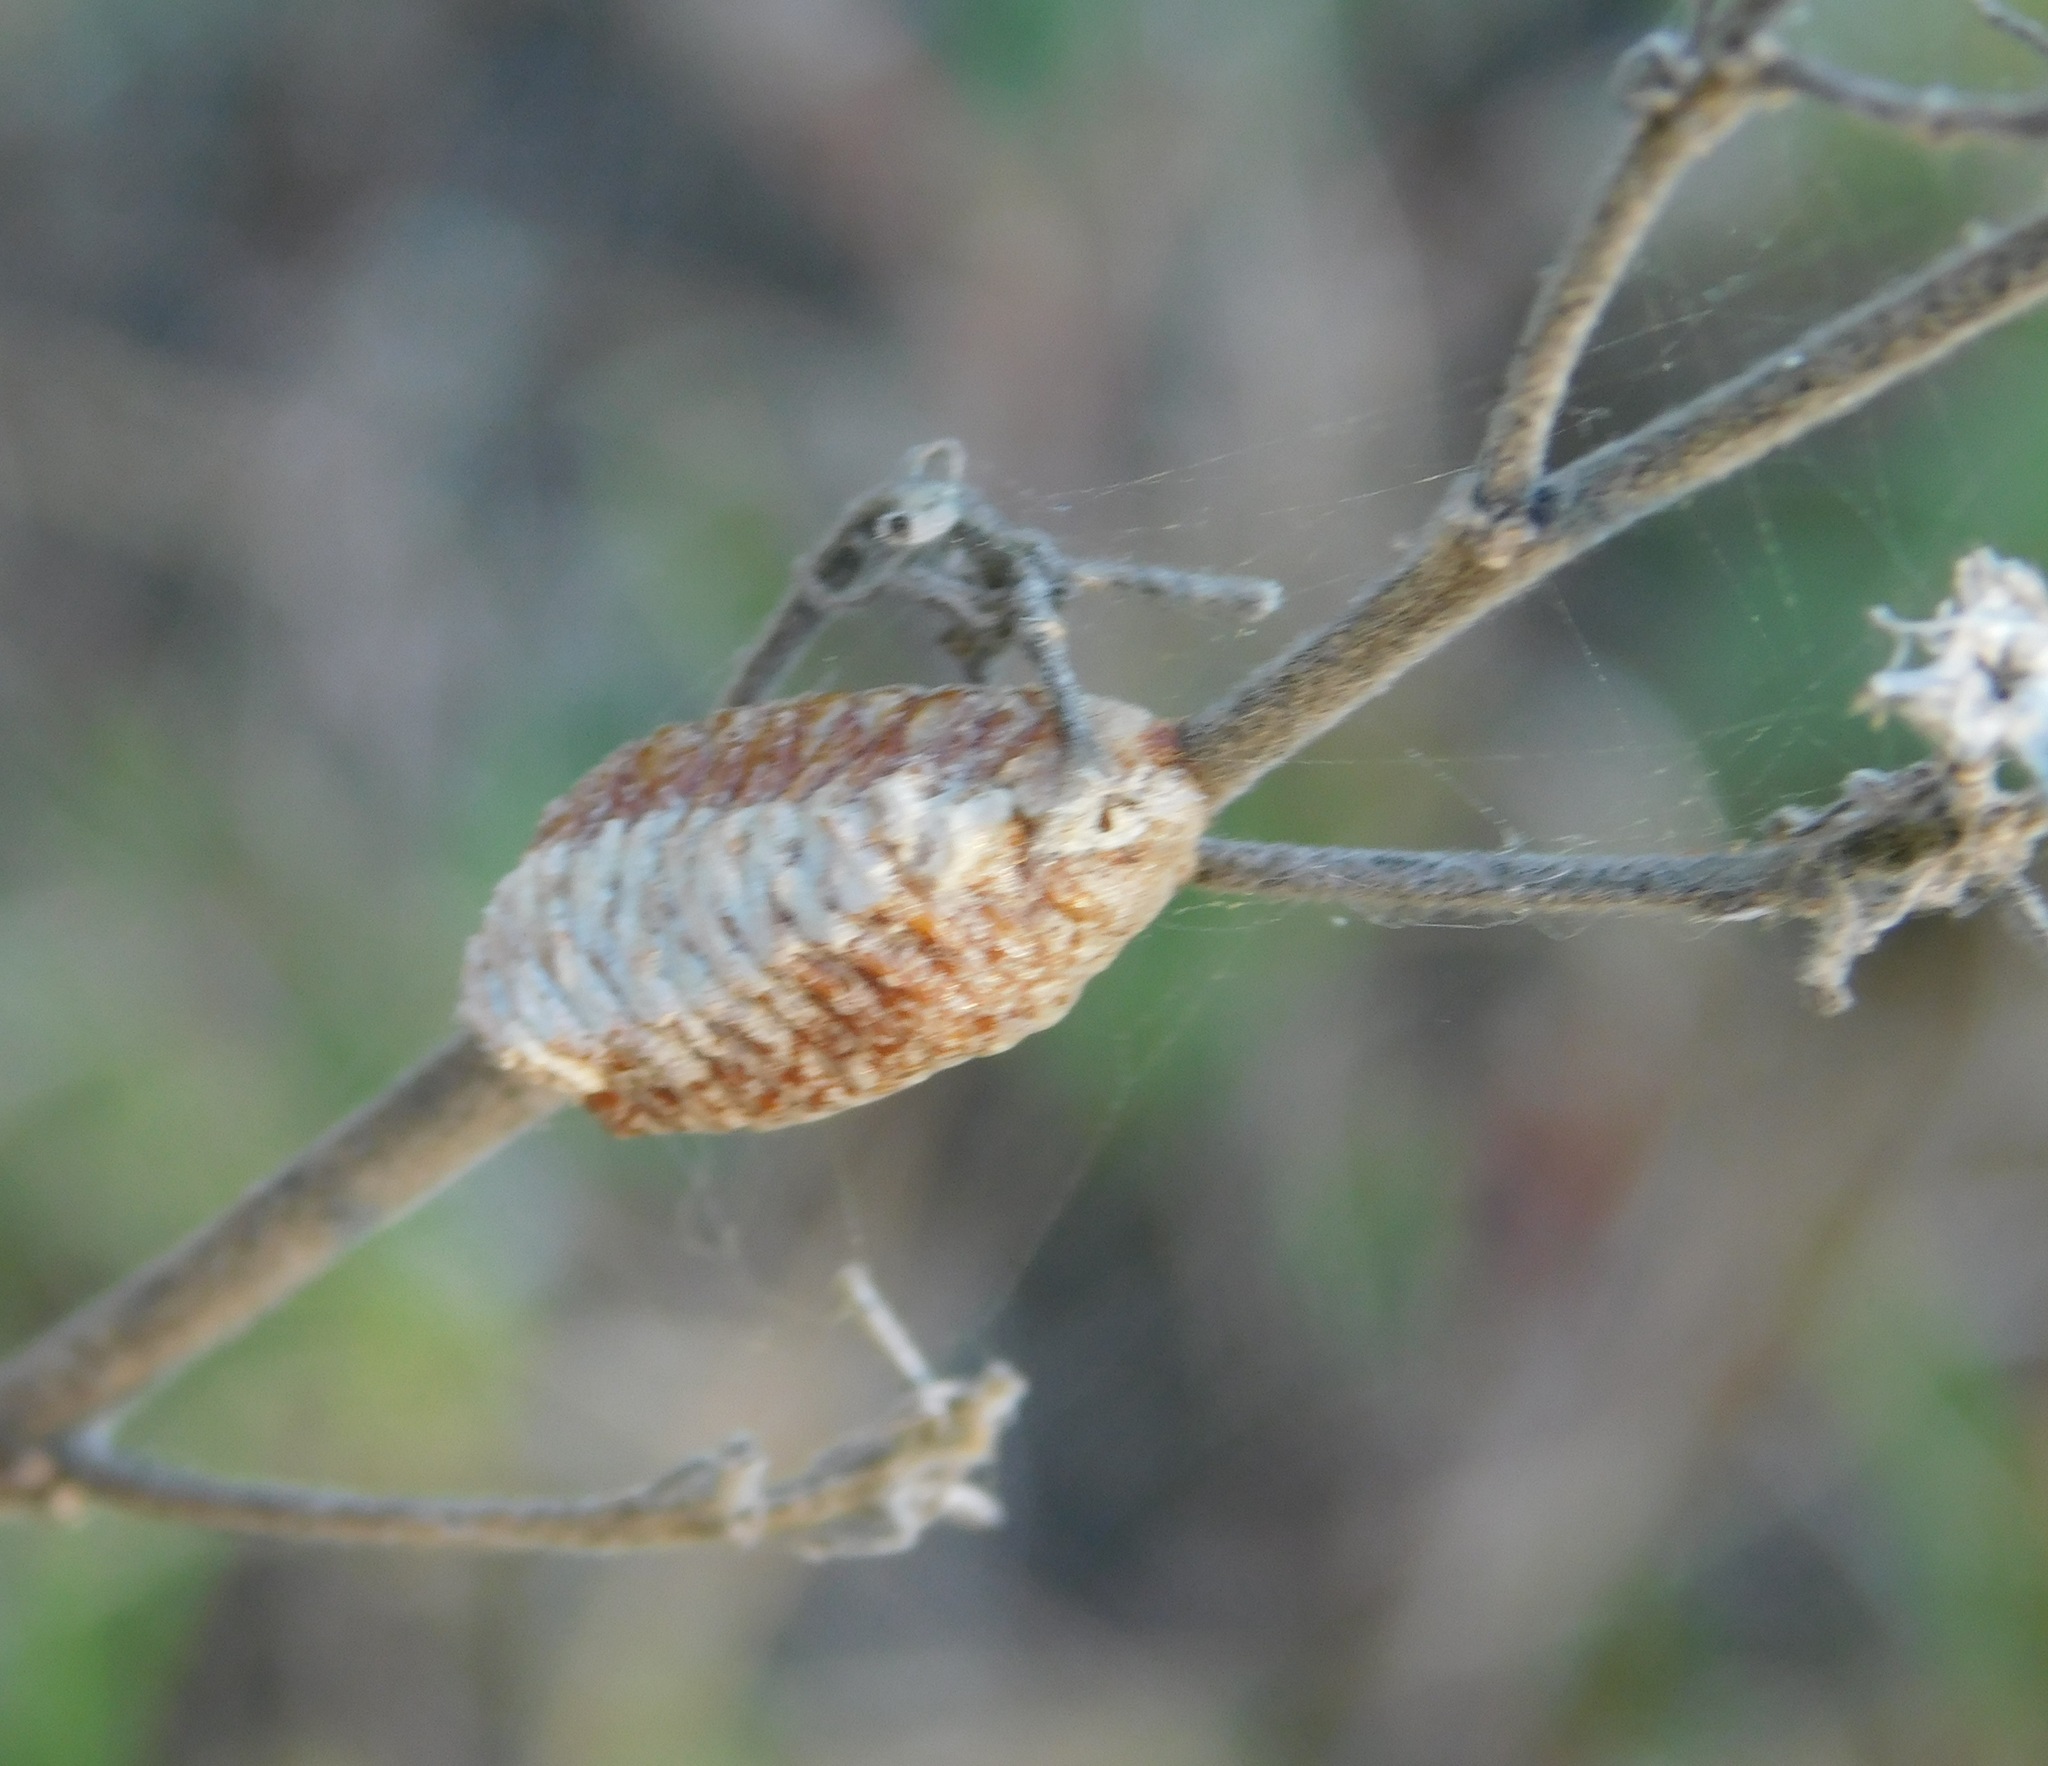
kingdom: Animalia
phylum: Arthropoda
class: Insecta
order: Mantodea
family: Mantidae
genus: Stagmomantis
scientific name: Stagmomantis carolina
